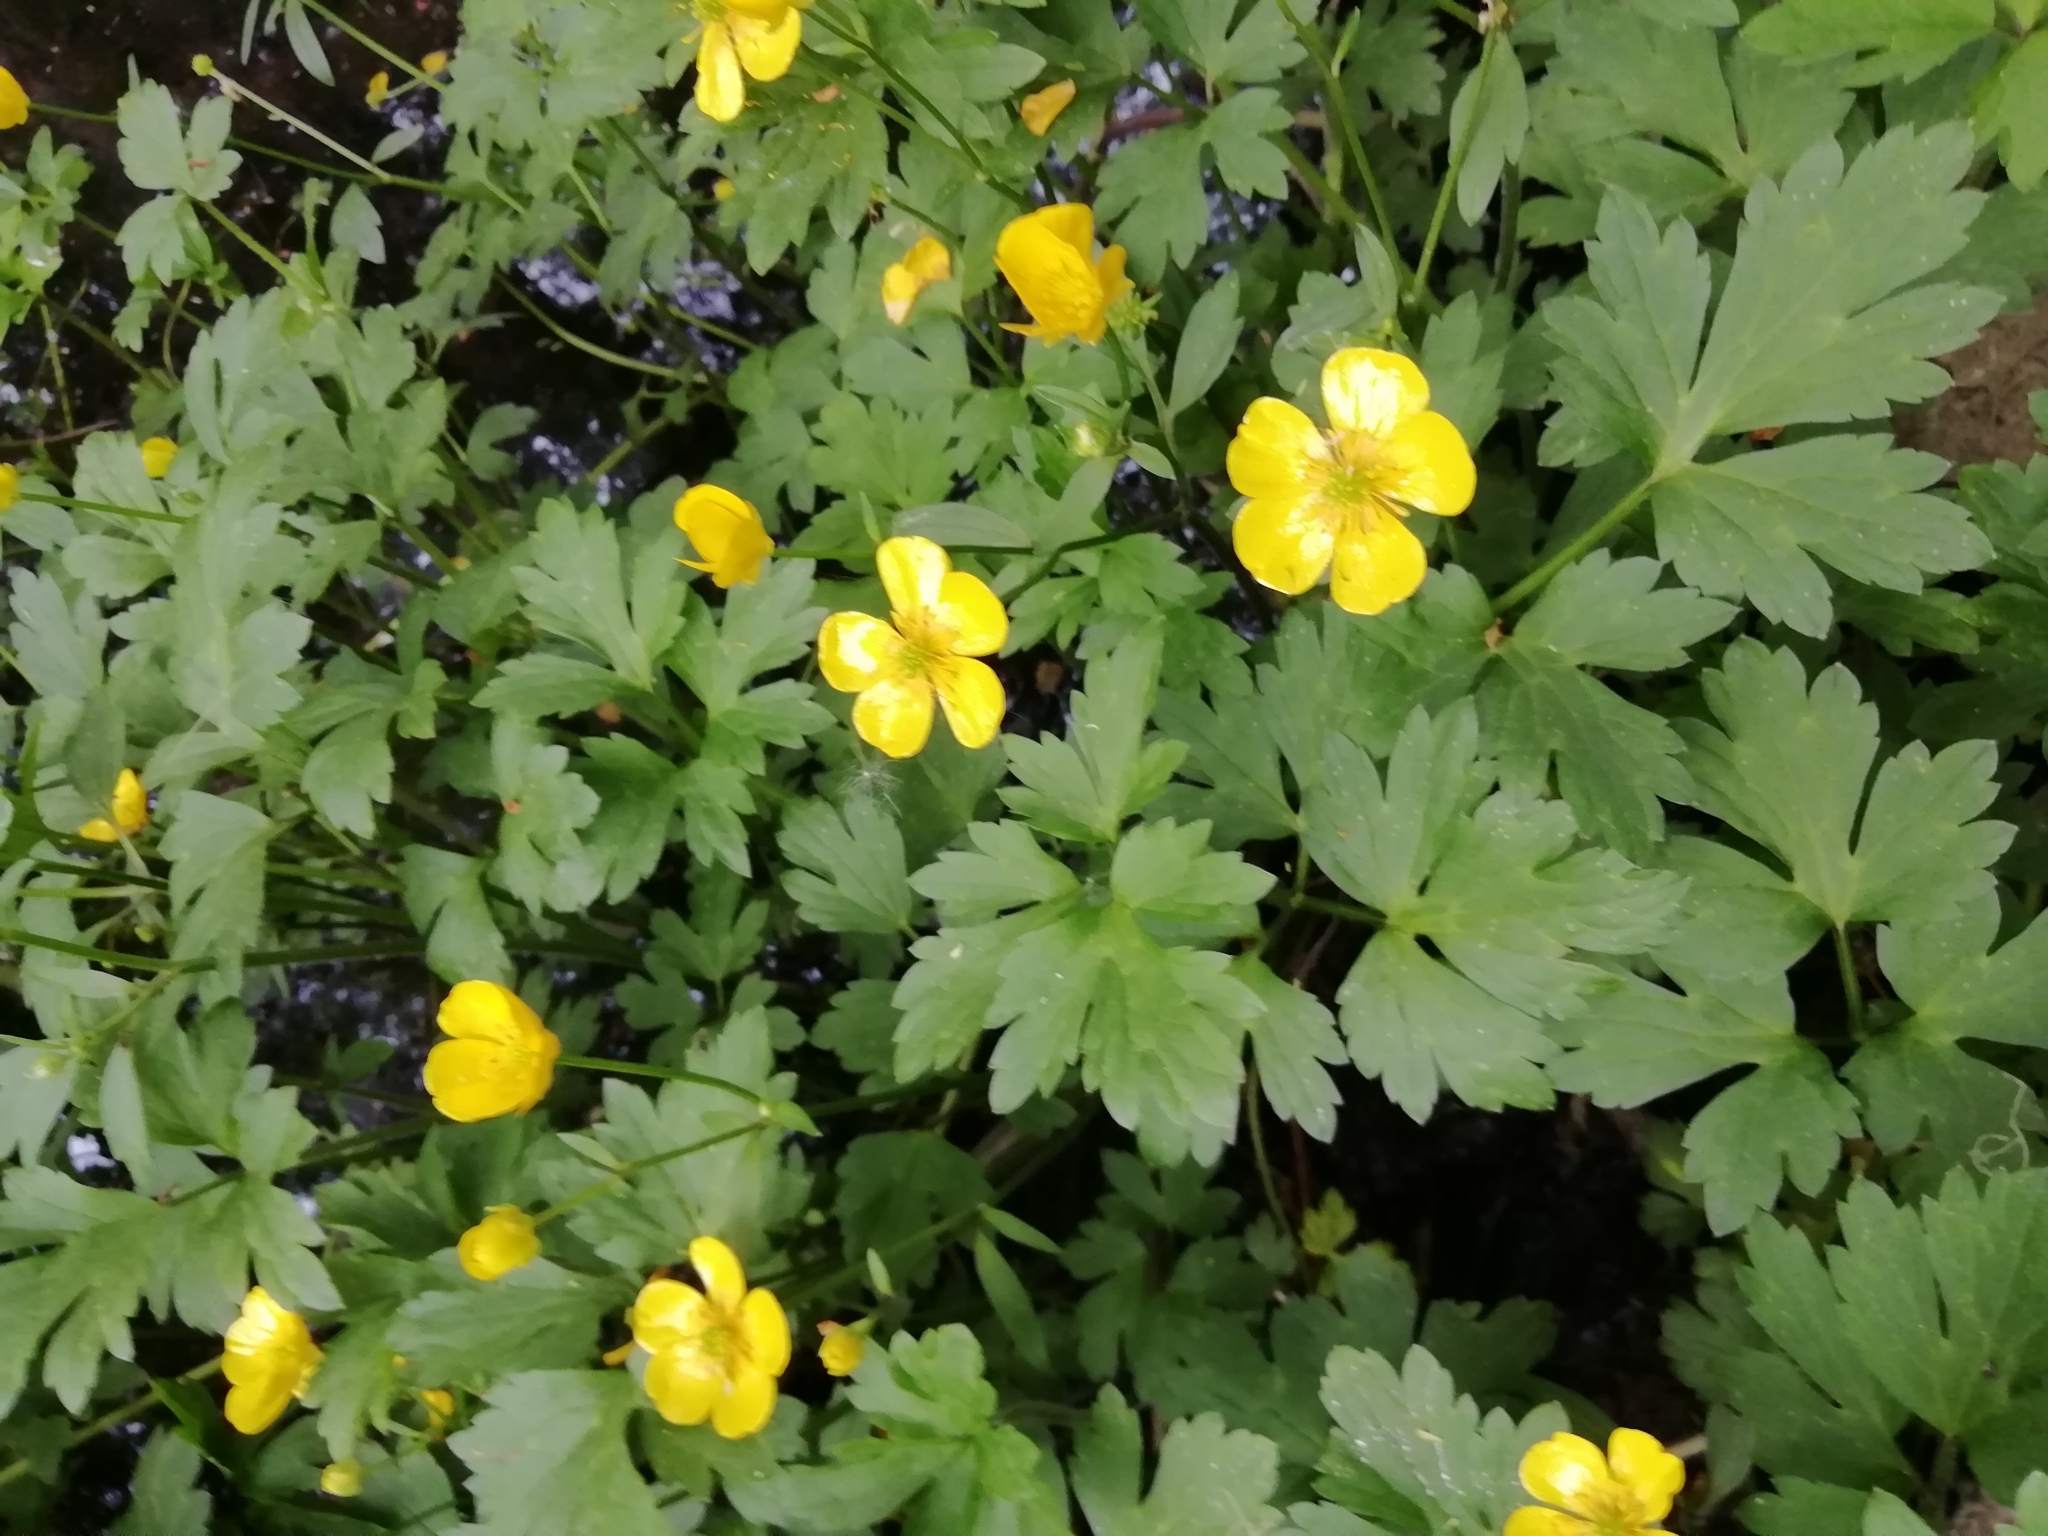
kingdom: Plantae
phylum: Tracheophyta
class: Magnoliopsida
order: Ranunculales
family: Ranunculaceae
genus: Ranunculus
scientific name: Ranunculus repens
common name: Creeping buttercup
